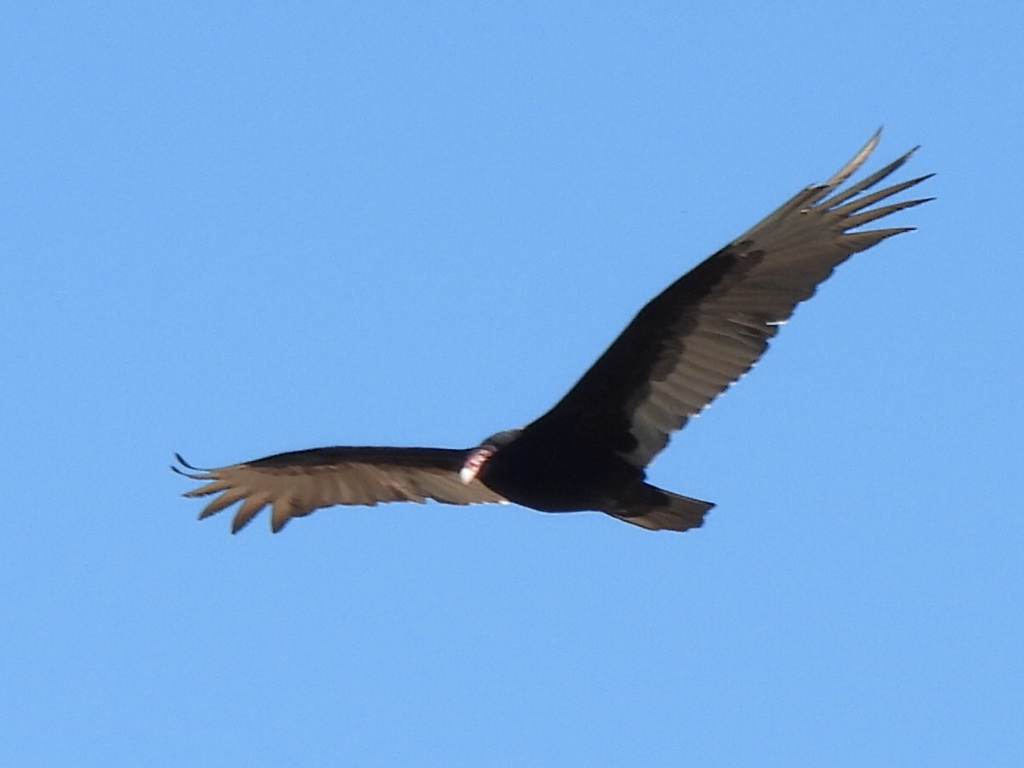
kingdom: Animalia
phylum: Chordata
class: Aves
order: Accipitriformes
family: Cathartidae
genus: Cathartes
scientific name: Cathartes aura
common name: Turkey vulture
